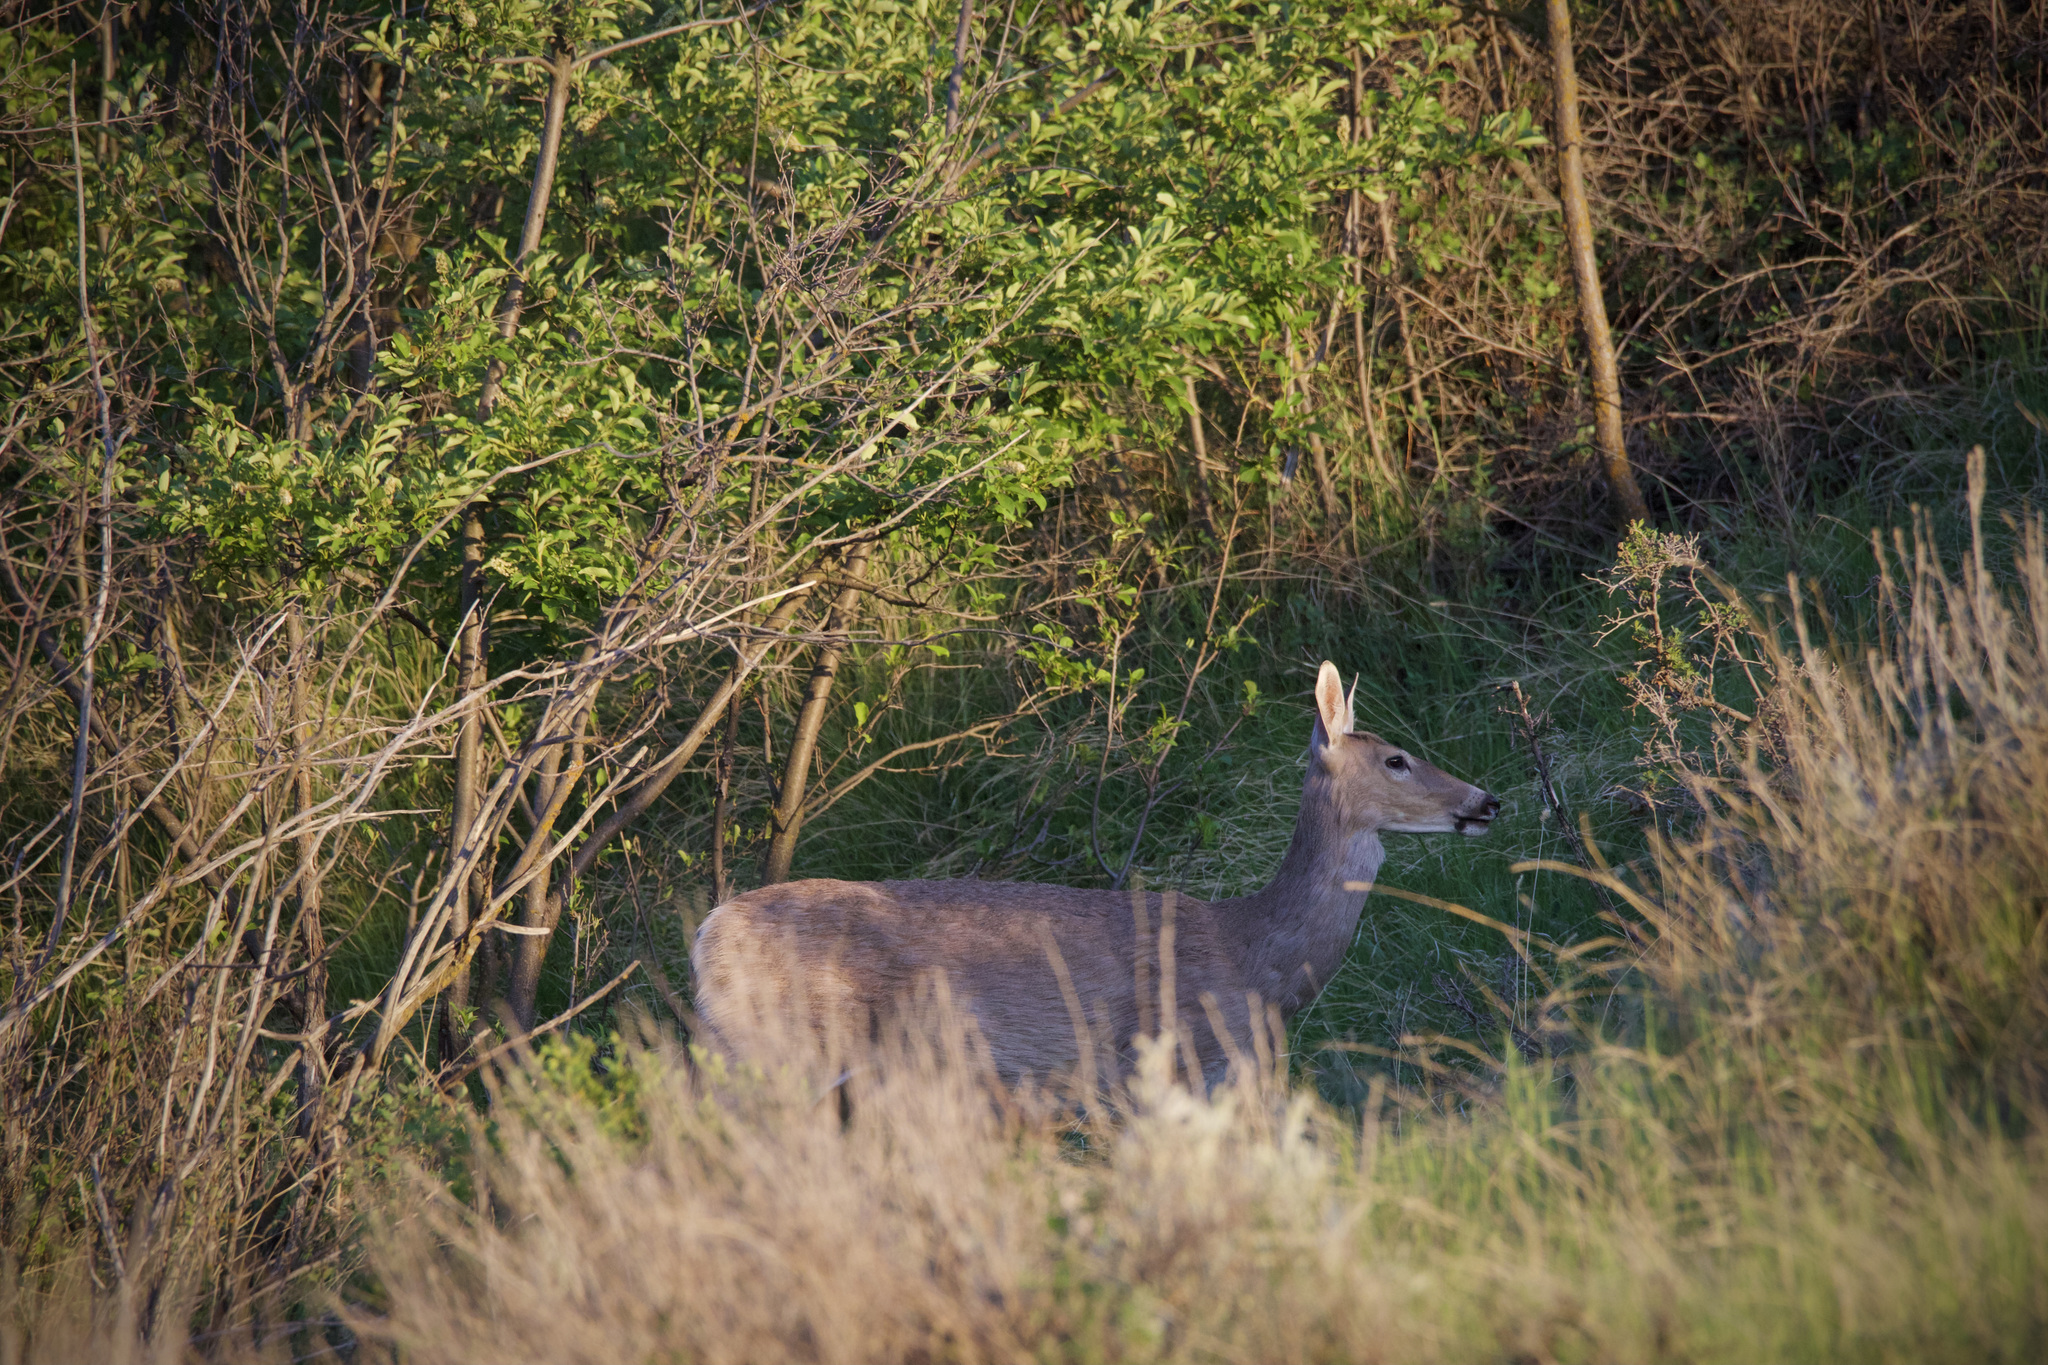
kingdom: Animalia
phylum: Chordata
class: Mammalia
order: Artiodactyla
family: Cervidae
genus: Odocoileus
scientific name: Odocoileus virginianus
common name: White-tailed deer
